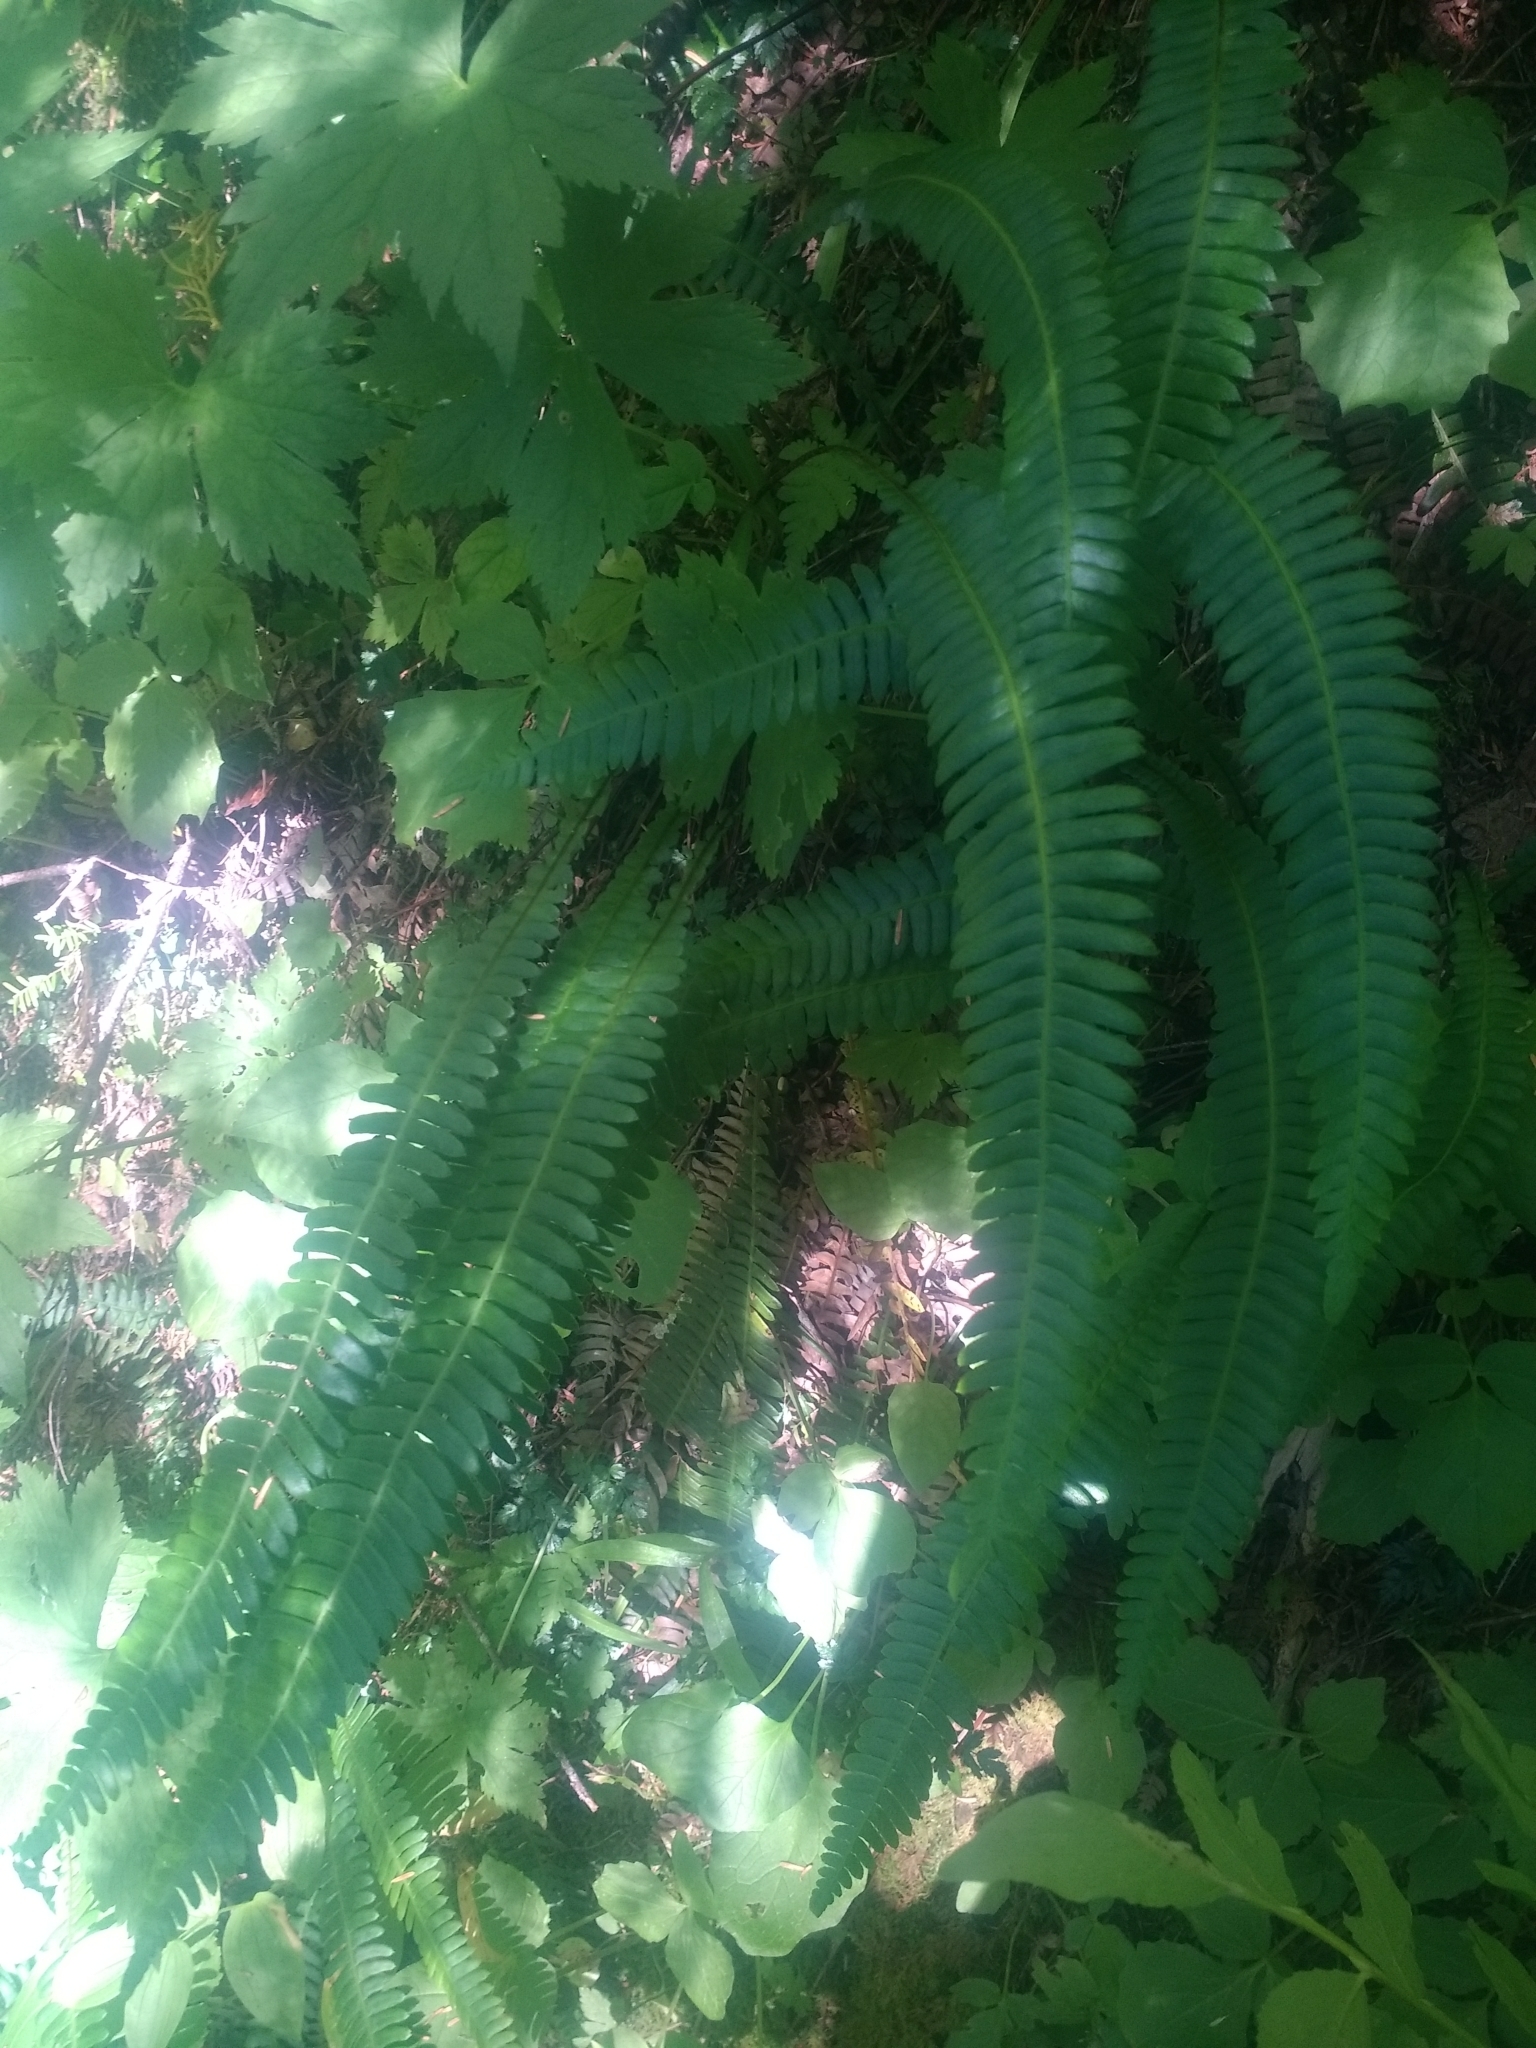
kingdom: Plantae
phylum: Tracheophyta
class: Polypodiopsida
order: Polypodiales
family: Blechnaceae
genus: Struthiopteris
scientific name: Struthiopteris spicant
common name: Deer fern
